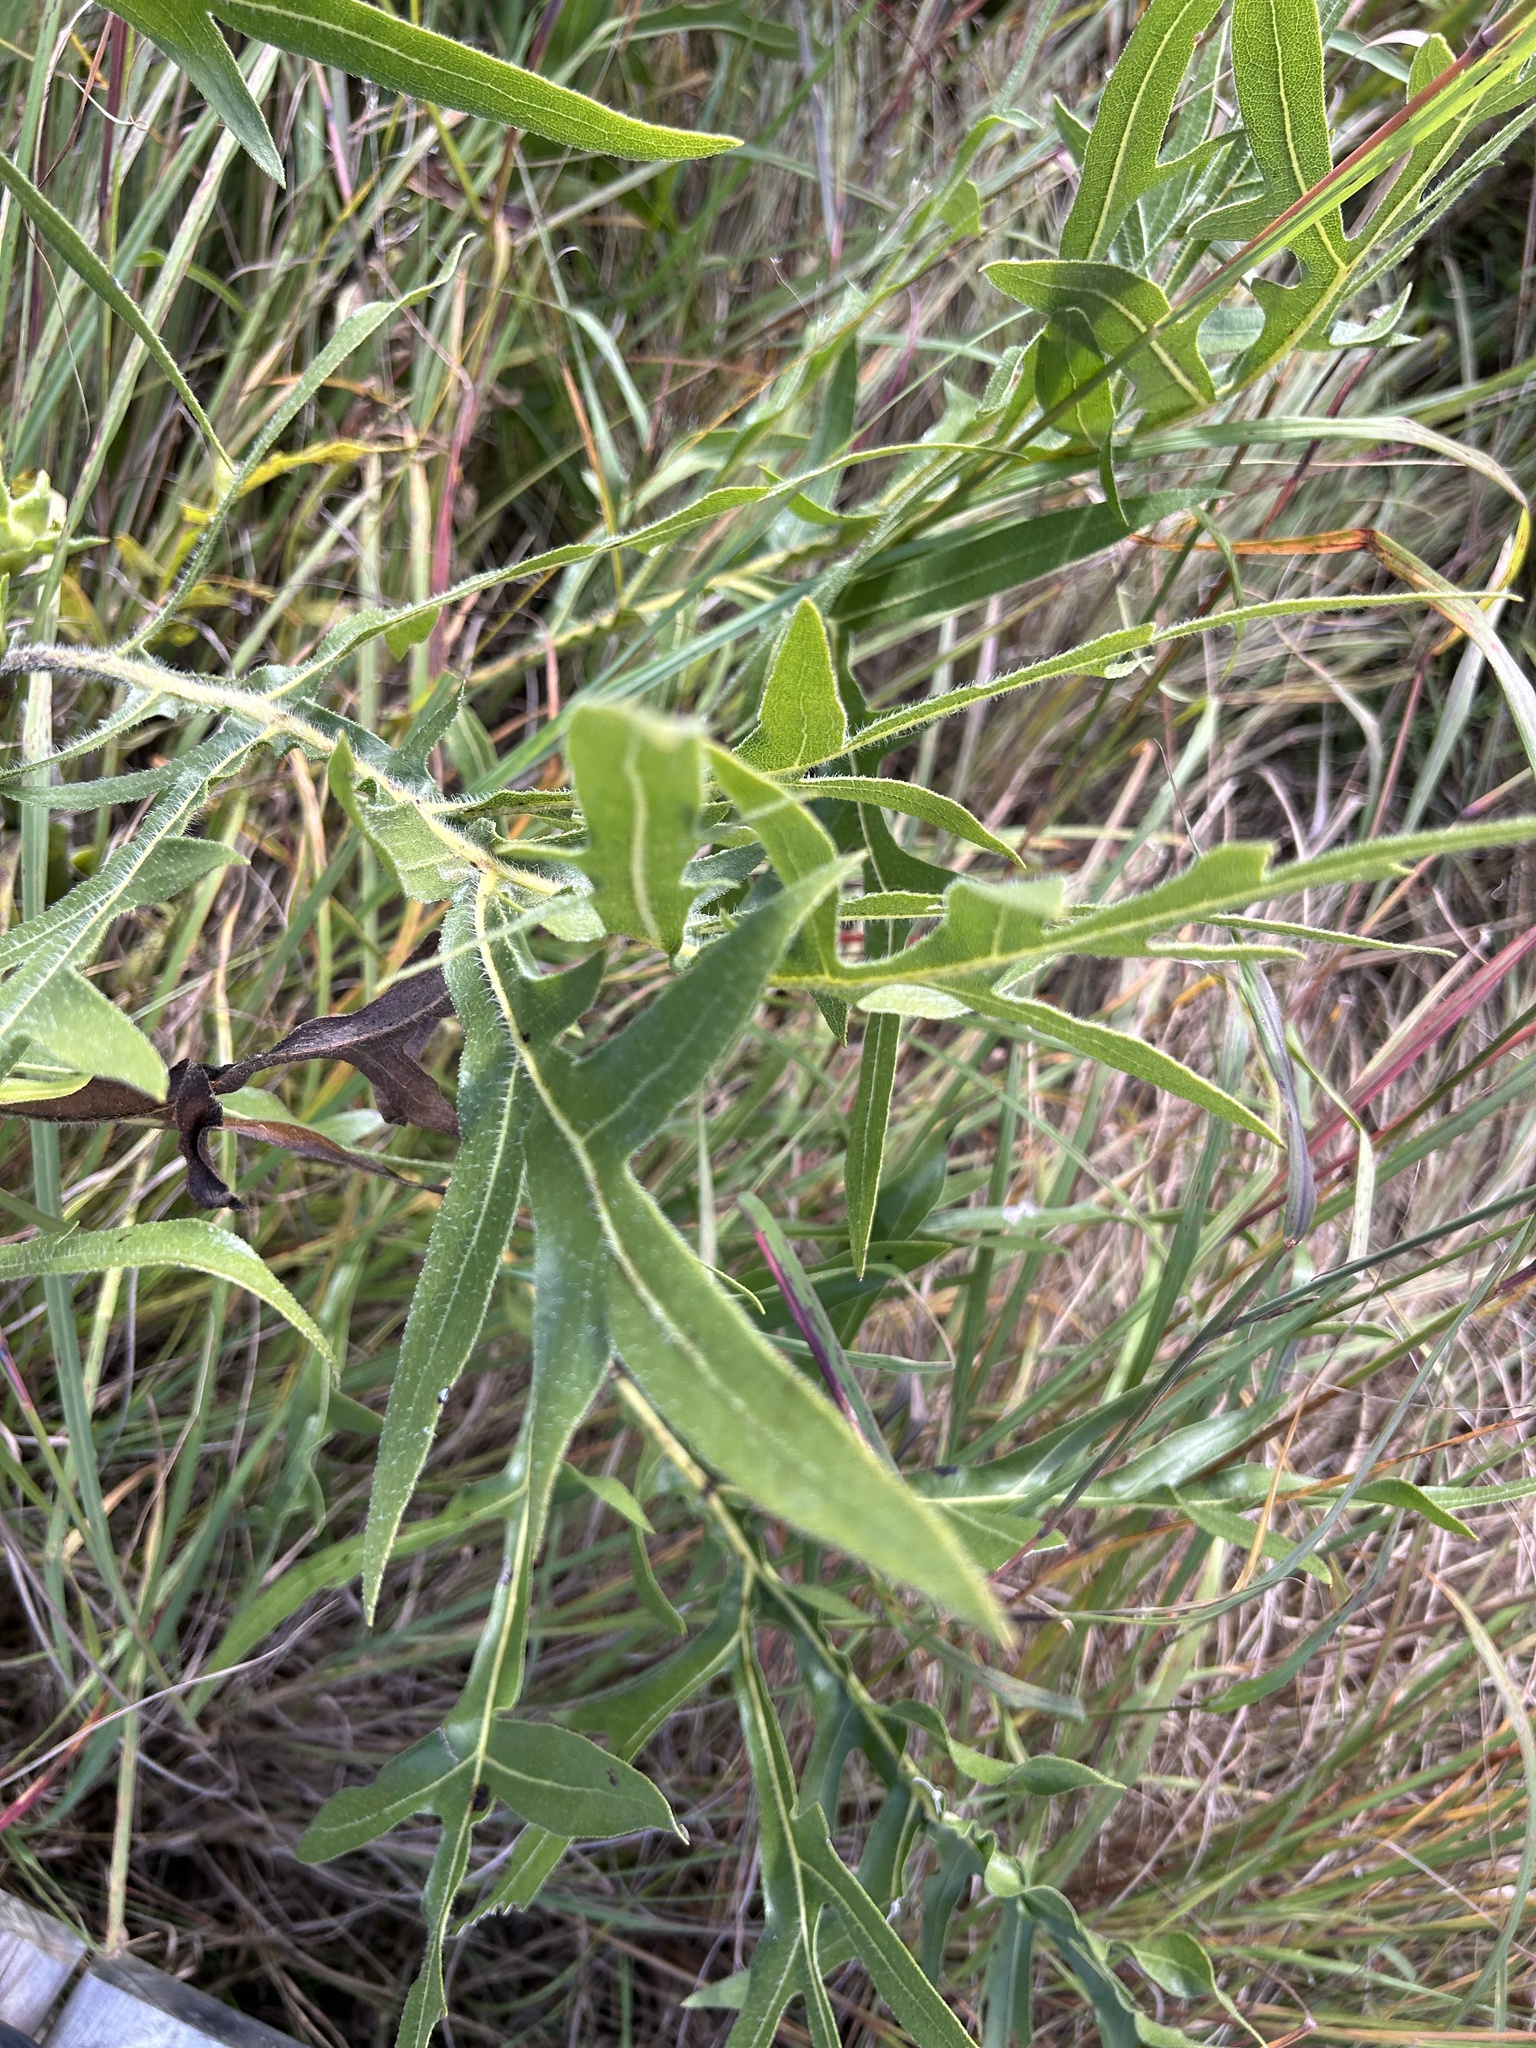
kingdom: Plantae
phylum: Tracheophyta
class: Magnoliopsida
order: Asterales
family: Asteraceae
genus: Silphium
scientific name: Silphium laciniatum
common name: Polarplant
